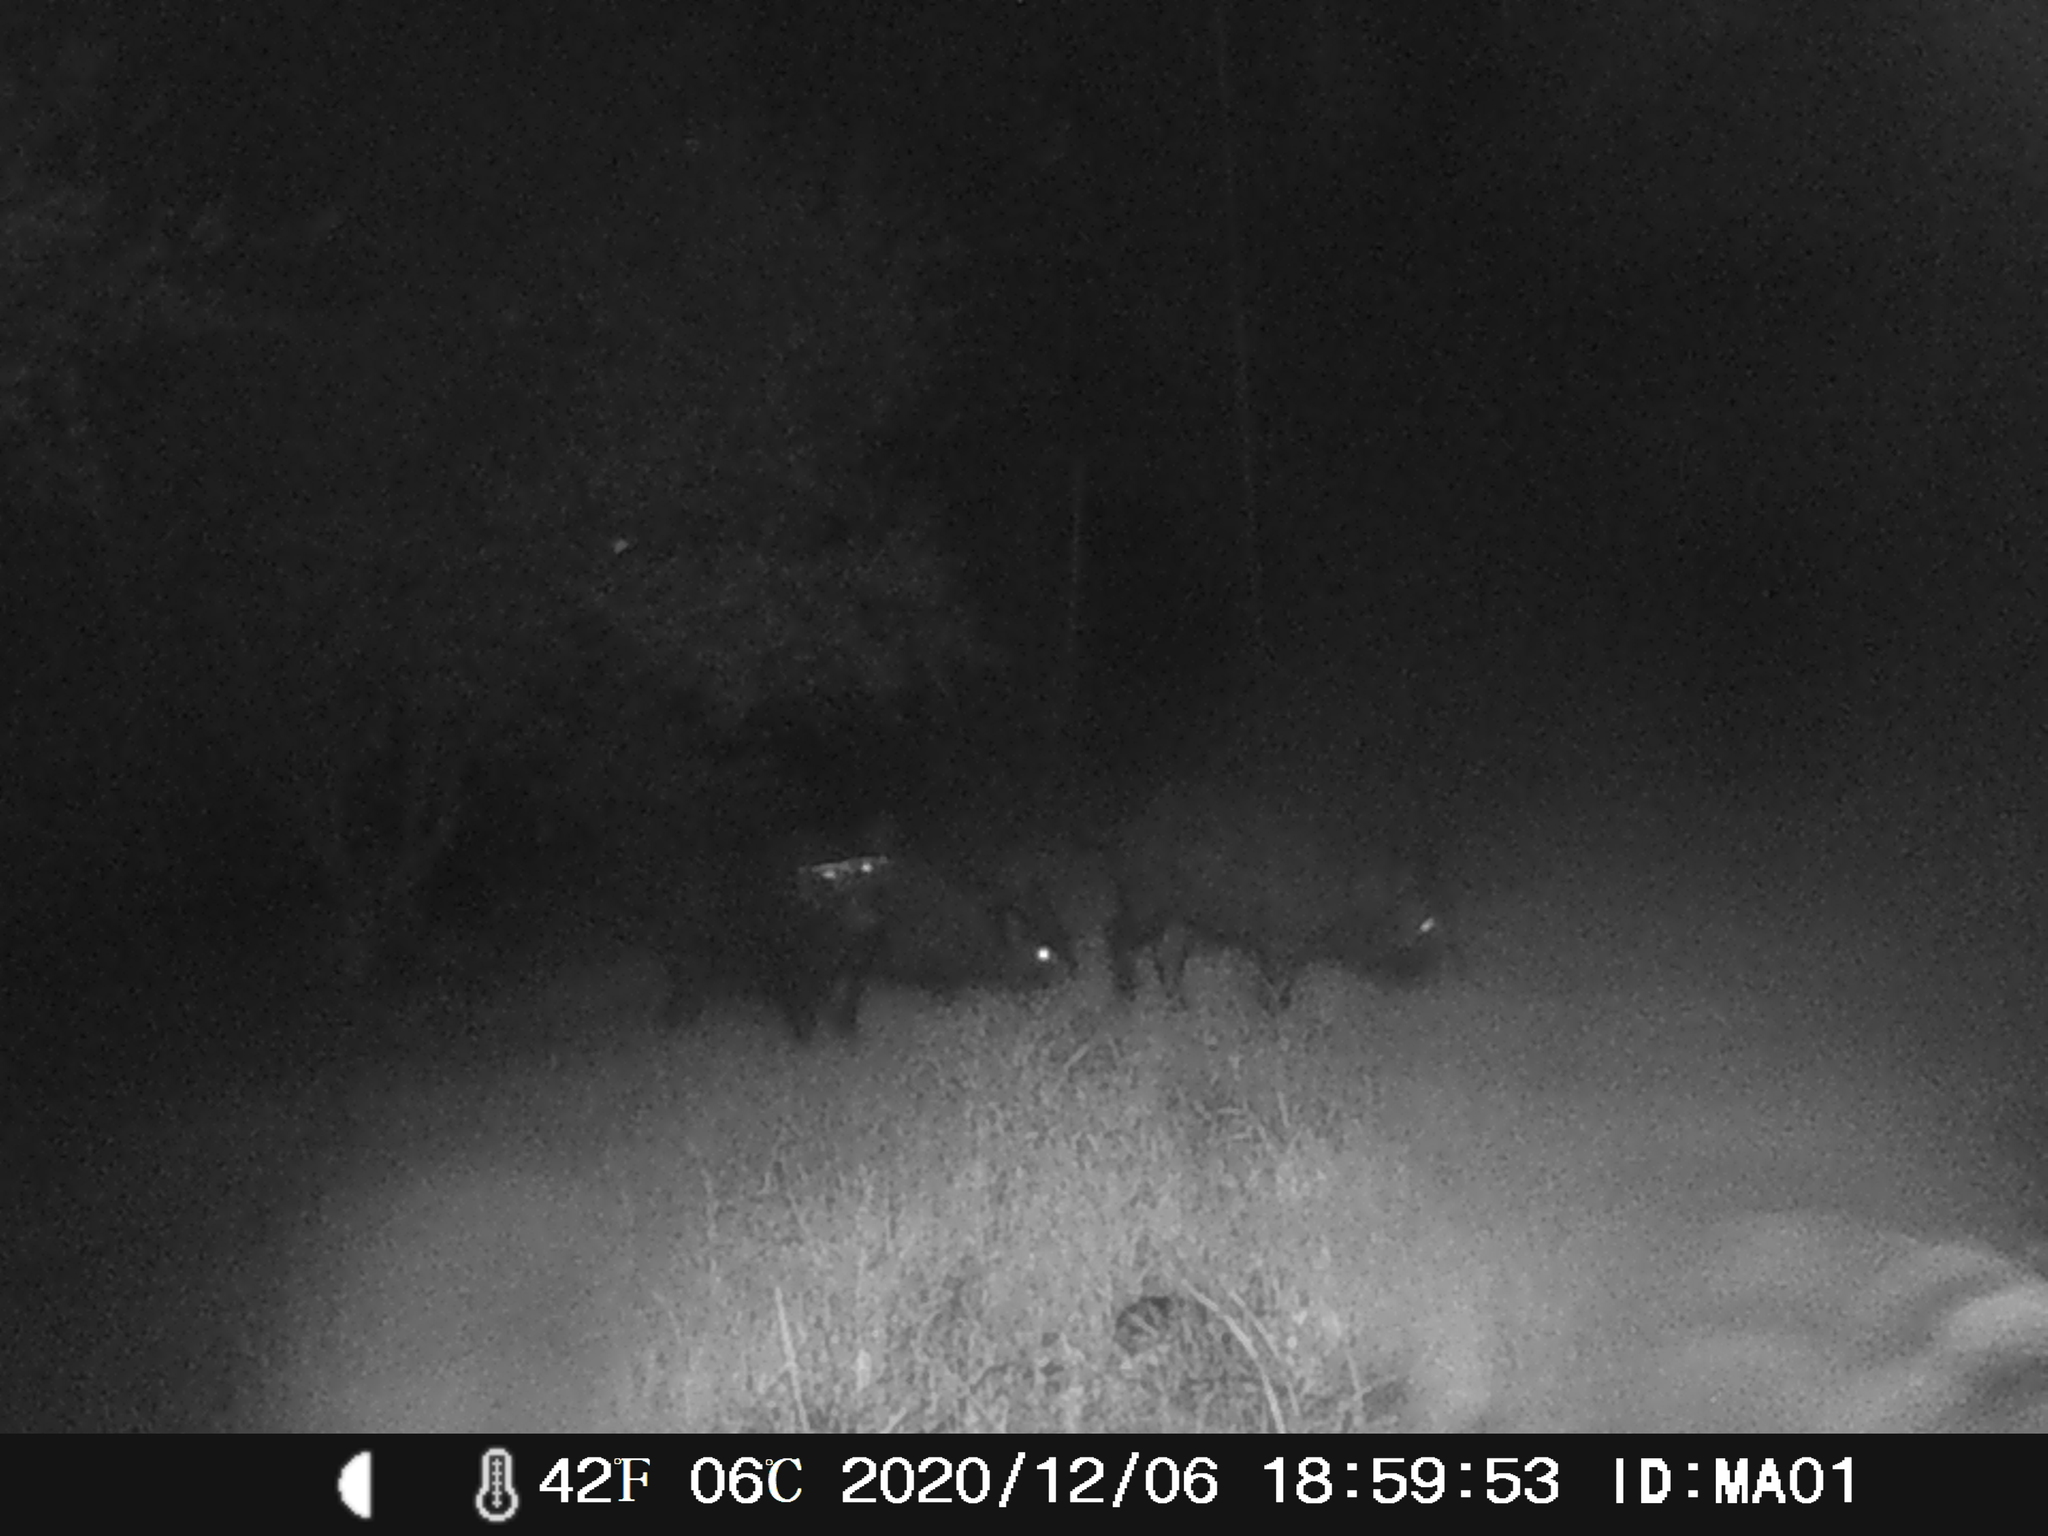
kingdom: Animalia
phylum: Chordata
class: Mammalia
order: Artiodactyla
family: Suidae
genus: Sus
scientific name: Sus scrofa
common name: Wild boar
